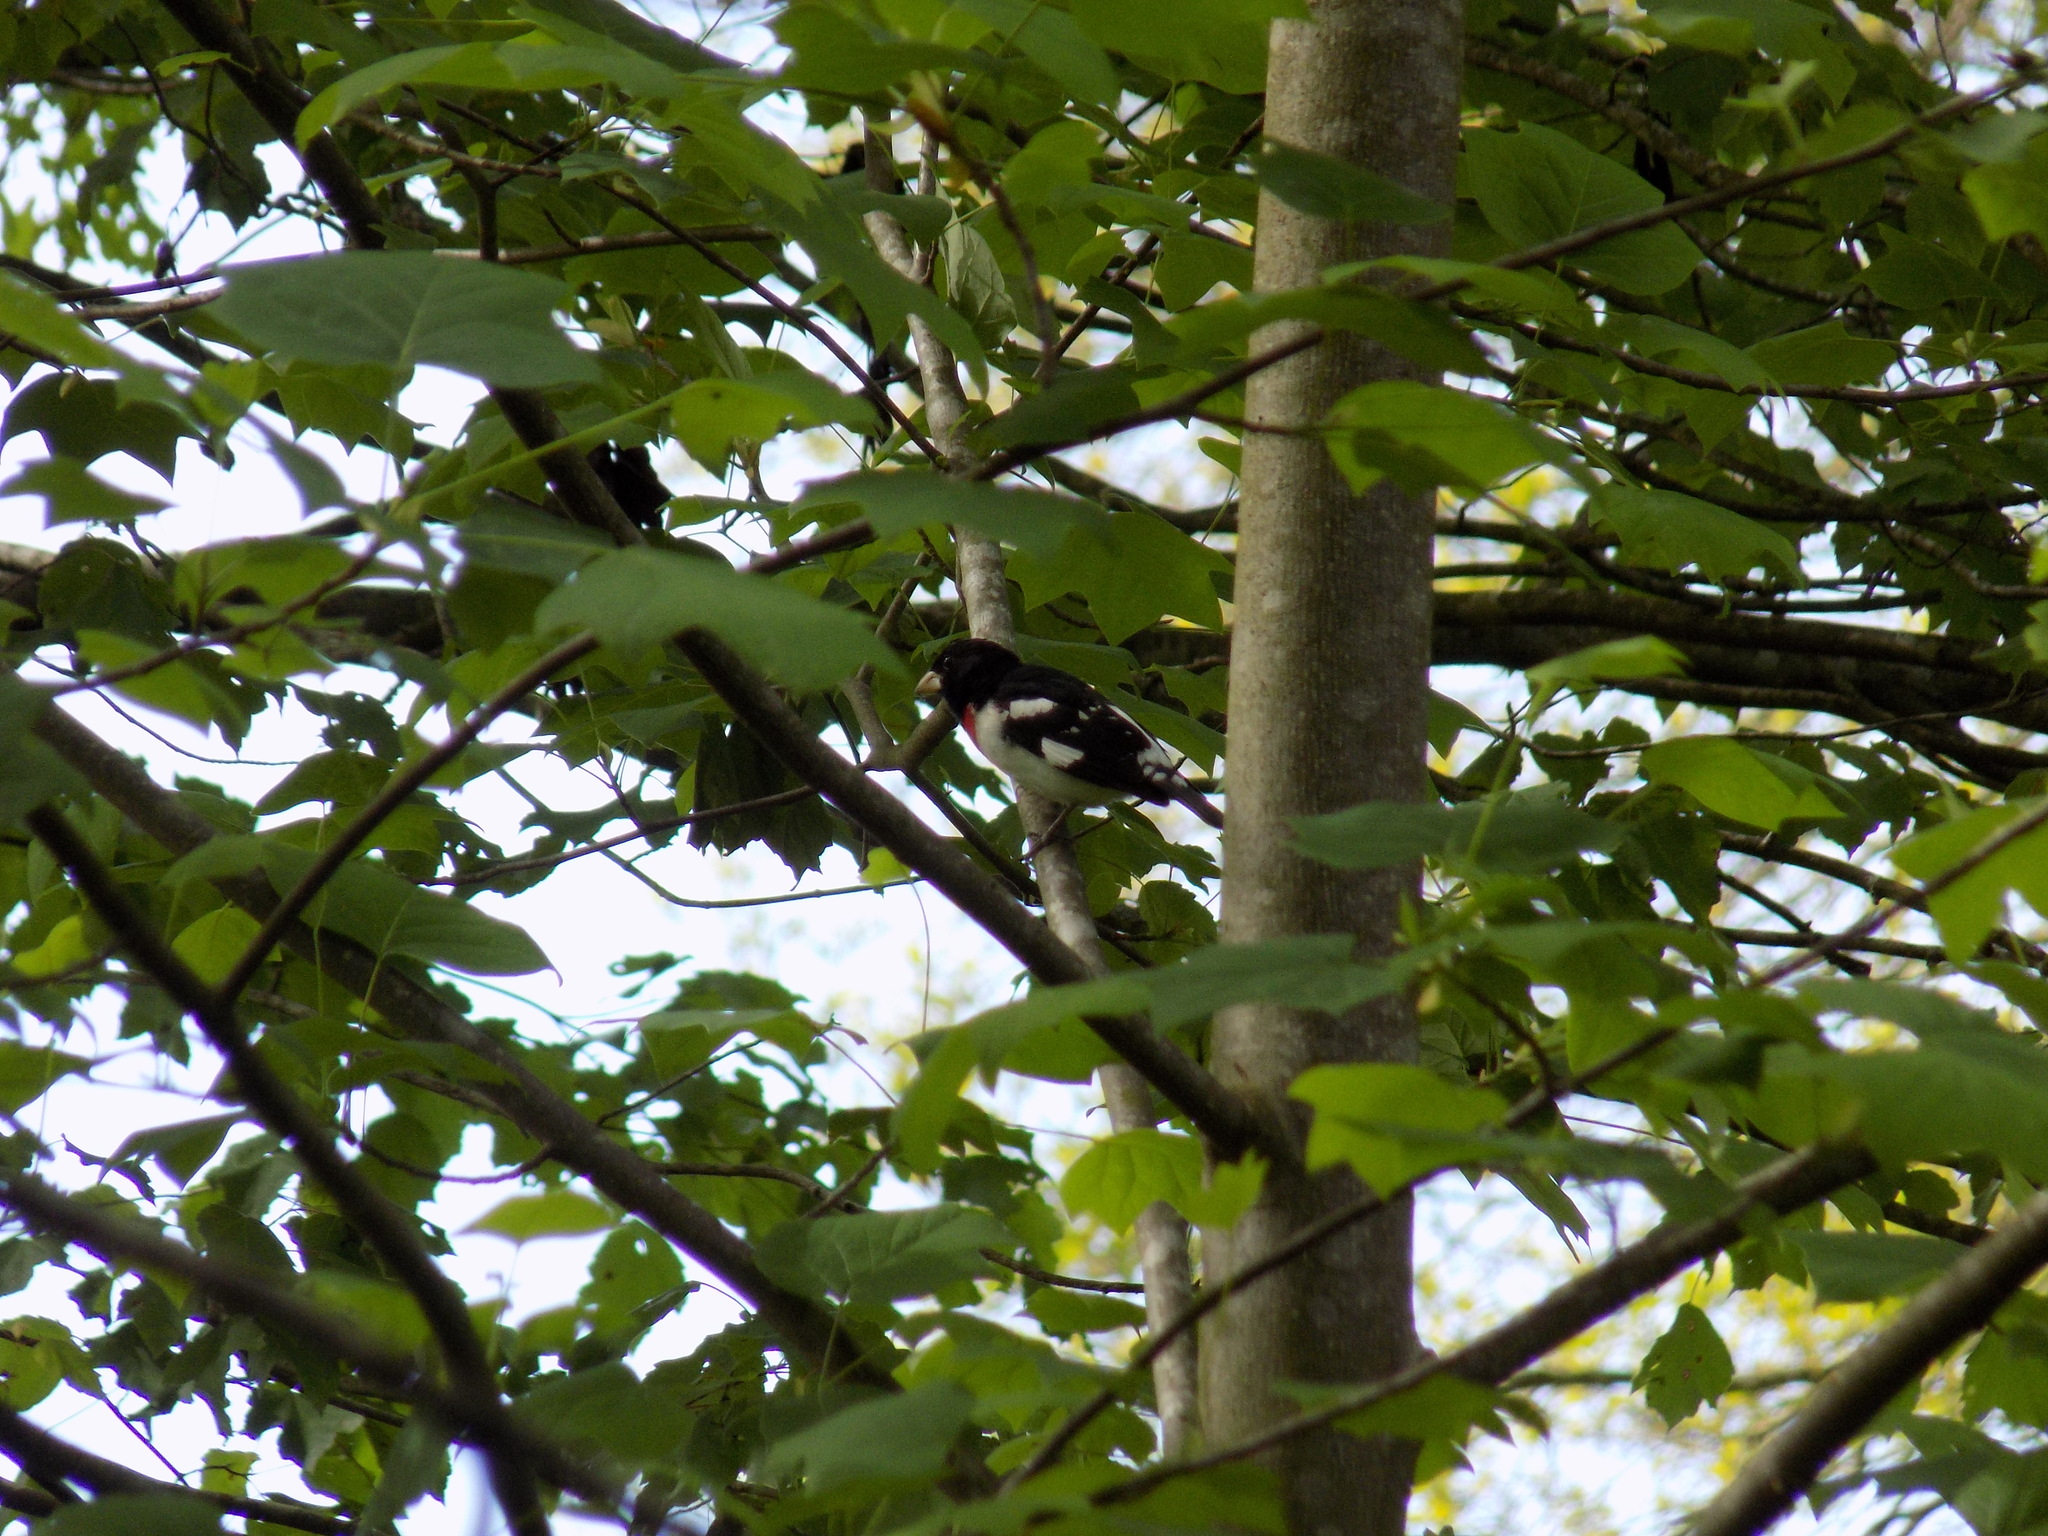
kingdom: Animalia
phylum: Chordata
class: Aves
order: Passeriformes
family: Cardinalidae
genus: Pheucticus
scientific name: Pheucticus ludovicianus
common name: Rose-breasted grosbeak
